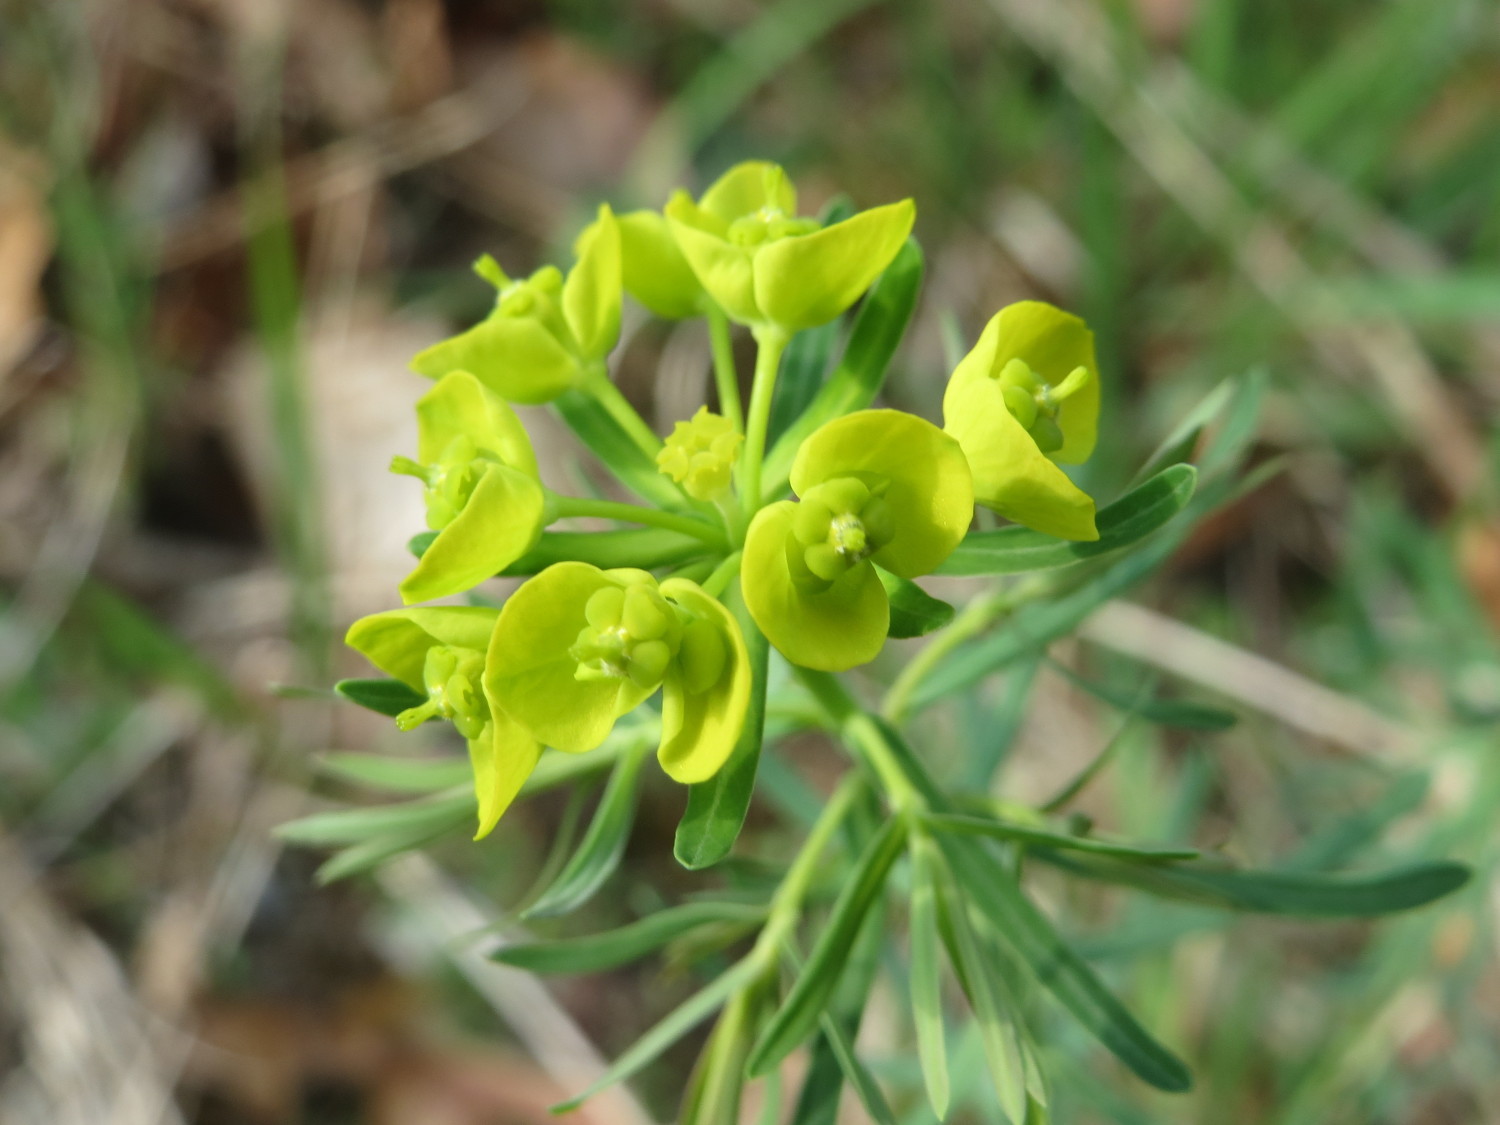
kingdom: Plantae
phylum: Tracheophyta
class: Magnoliopsida
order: Malpighiales
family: Euphorbiaceae
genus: Euphorbia
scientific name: Euphorbia cyparissias
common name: Cypress spurge
